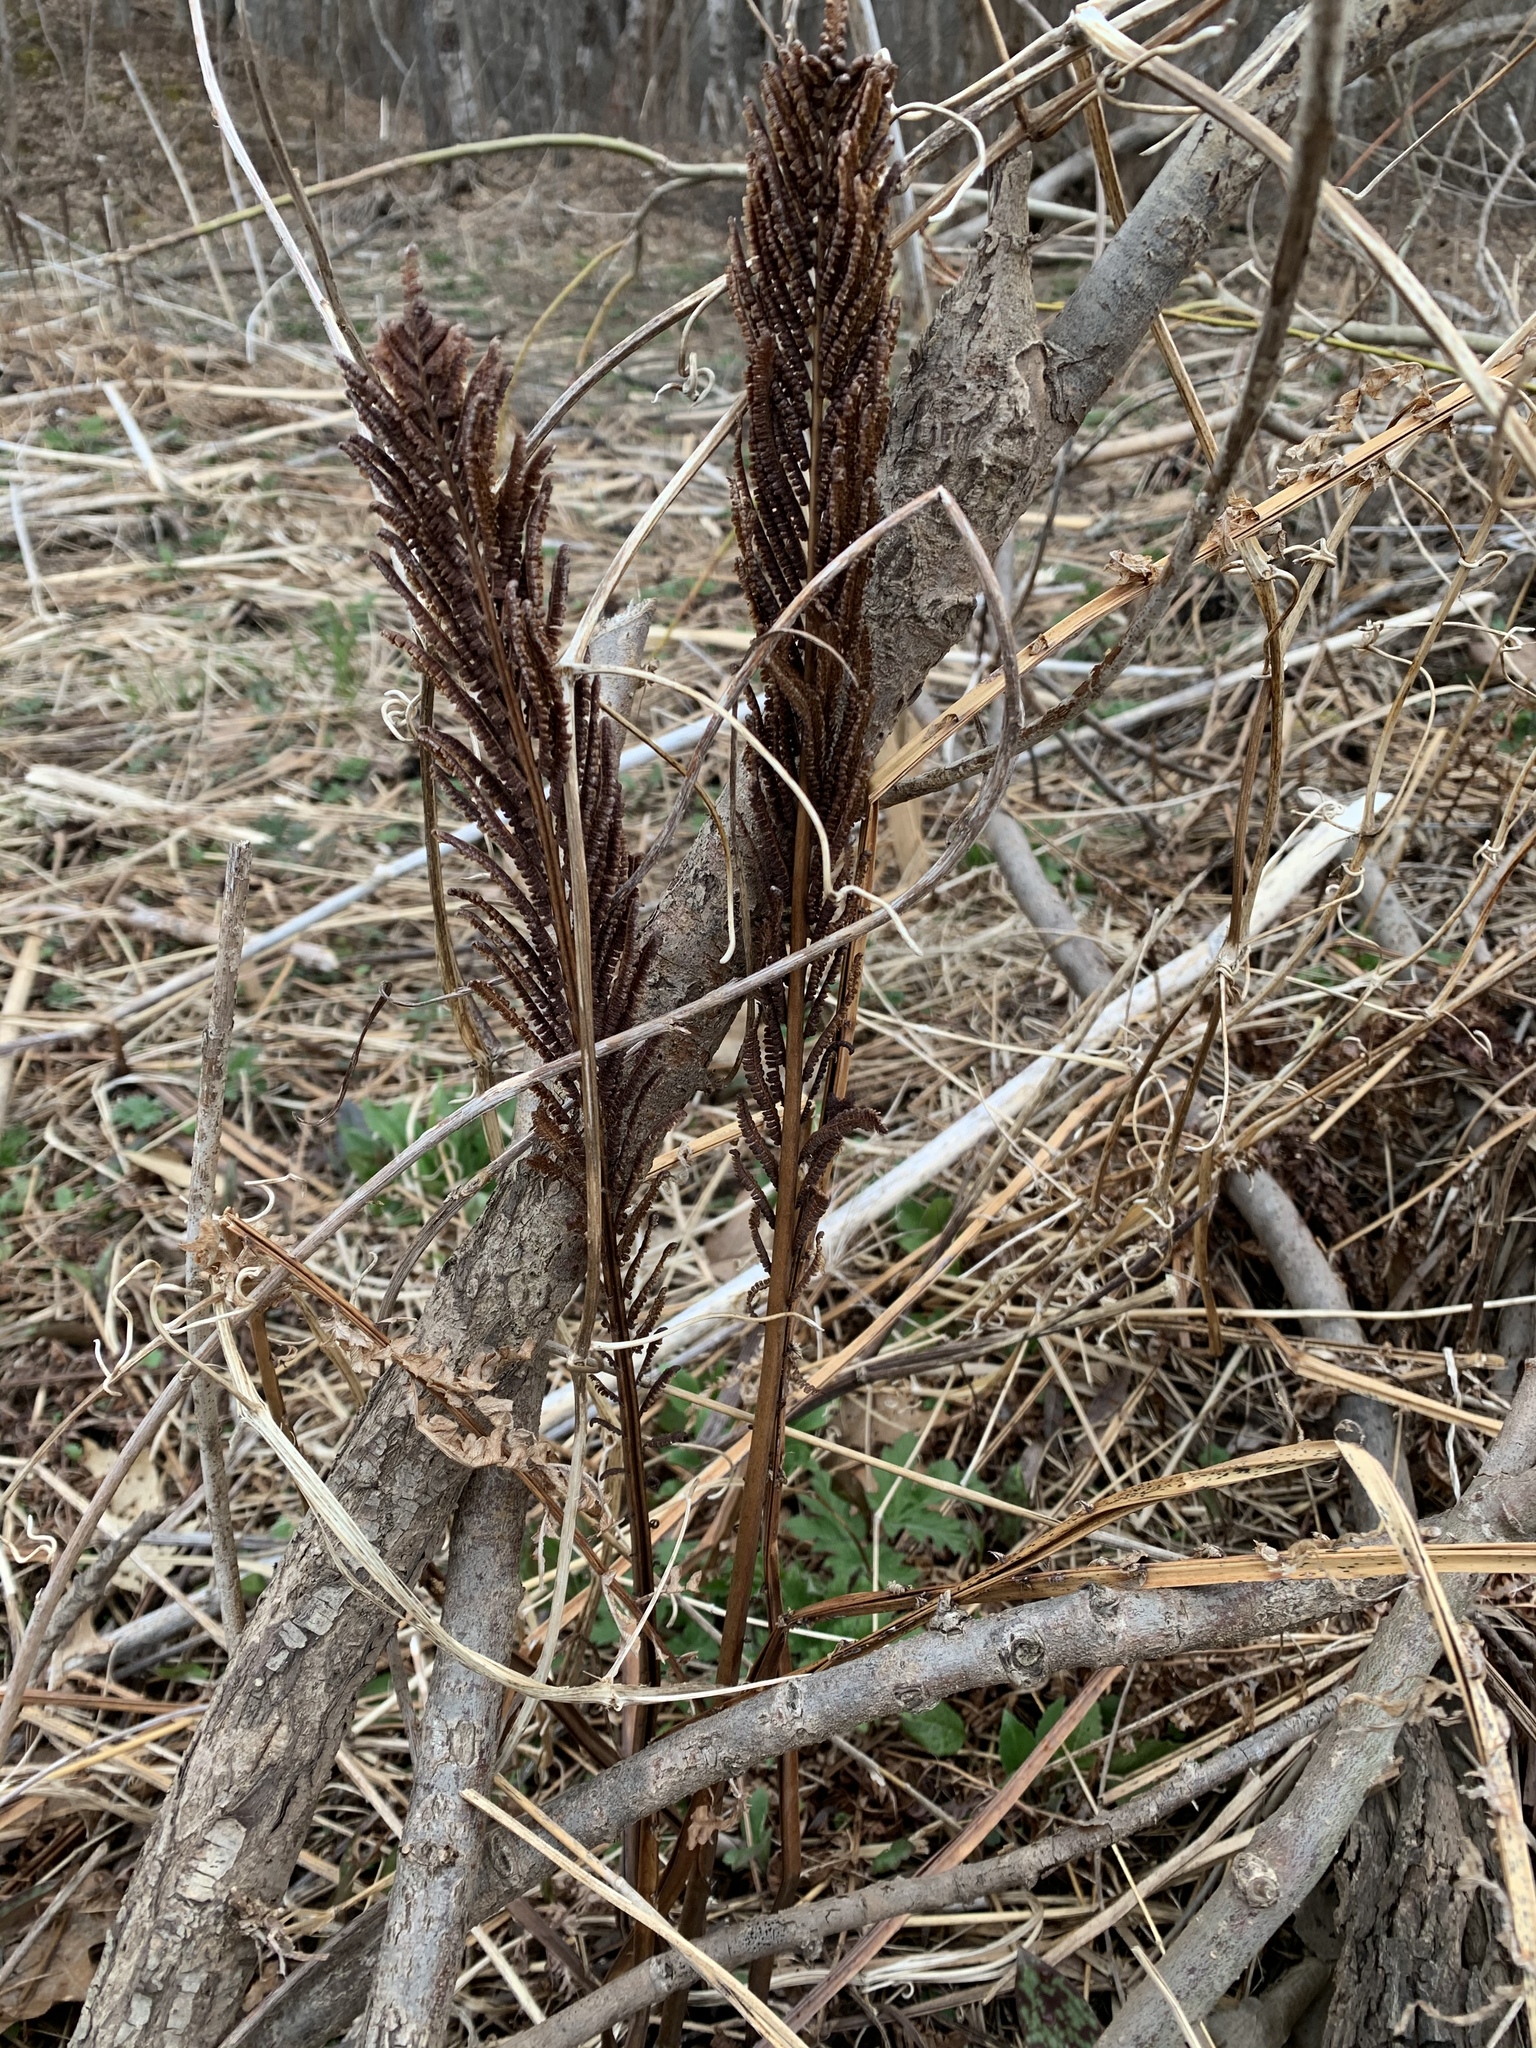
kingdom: Plantae
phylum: Tracheophyta
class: Polypodiopsida
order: Polypodiales
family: Onocleaceae
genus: Matteuccia
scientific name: Matteuccia struthiopteris
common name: Ostrich fern
